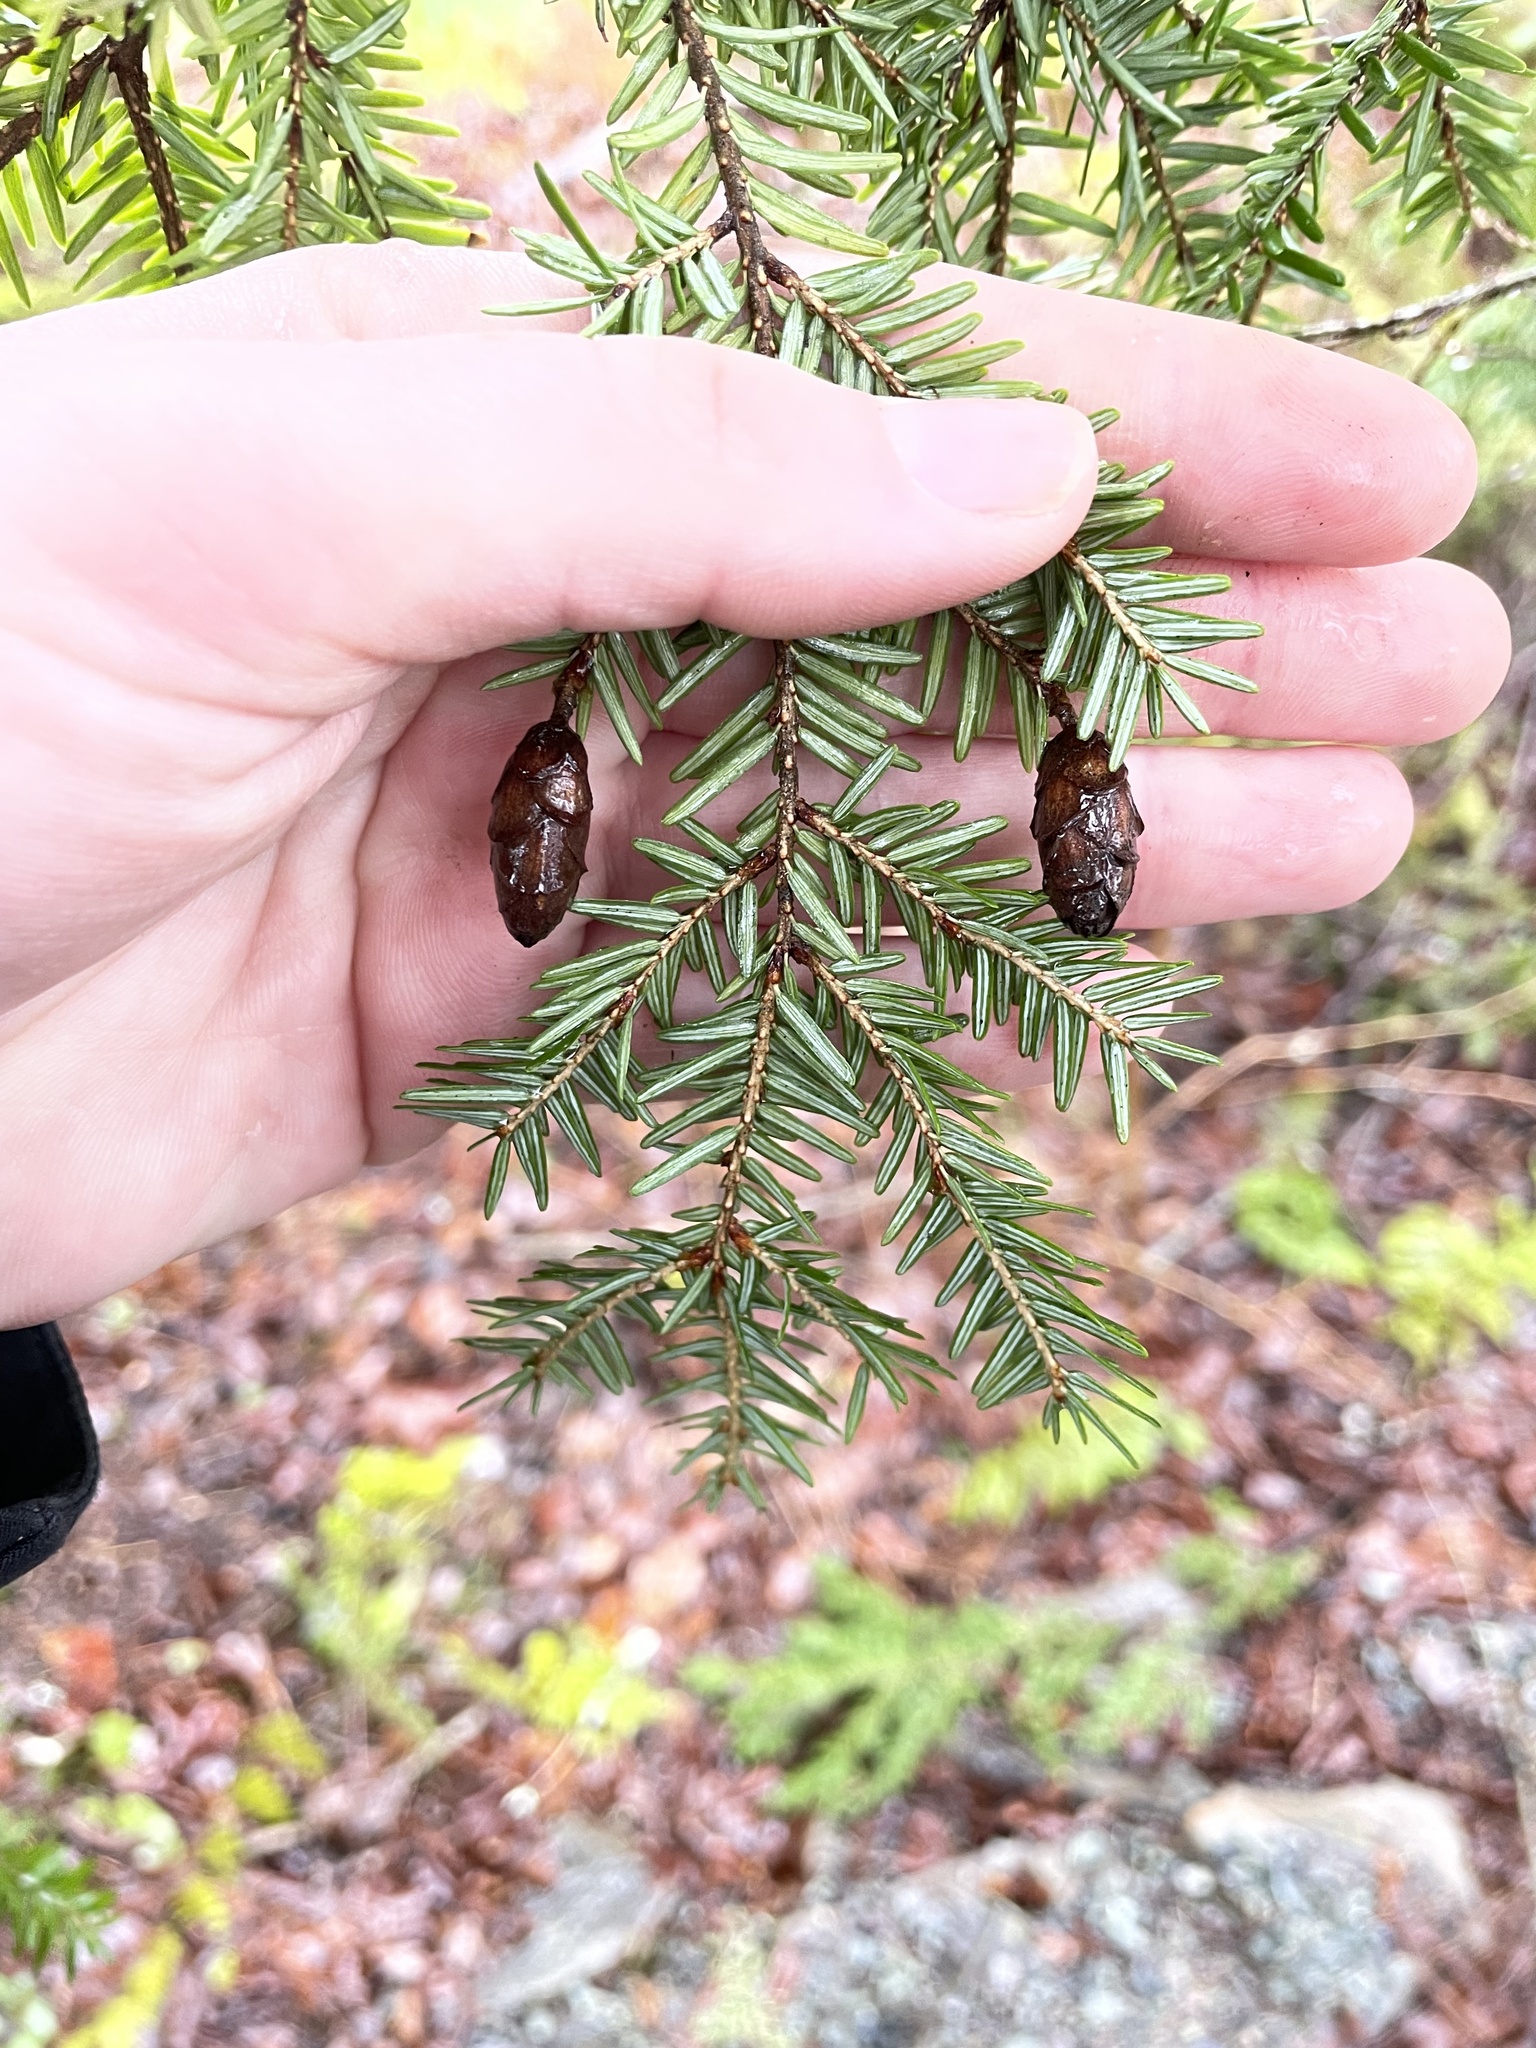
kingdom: Plantae
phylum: Tracheophyta
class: Pinopsida
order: Pinales
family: Pinaceae
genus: Tsuga
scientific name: Tsuga canadensis
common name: Eastern hemlock
